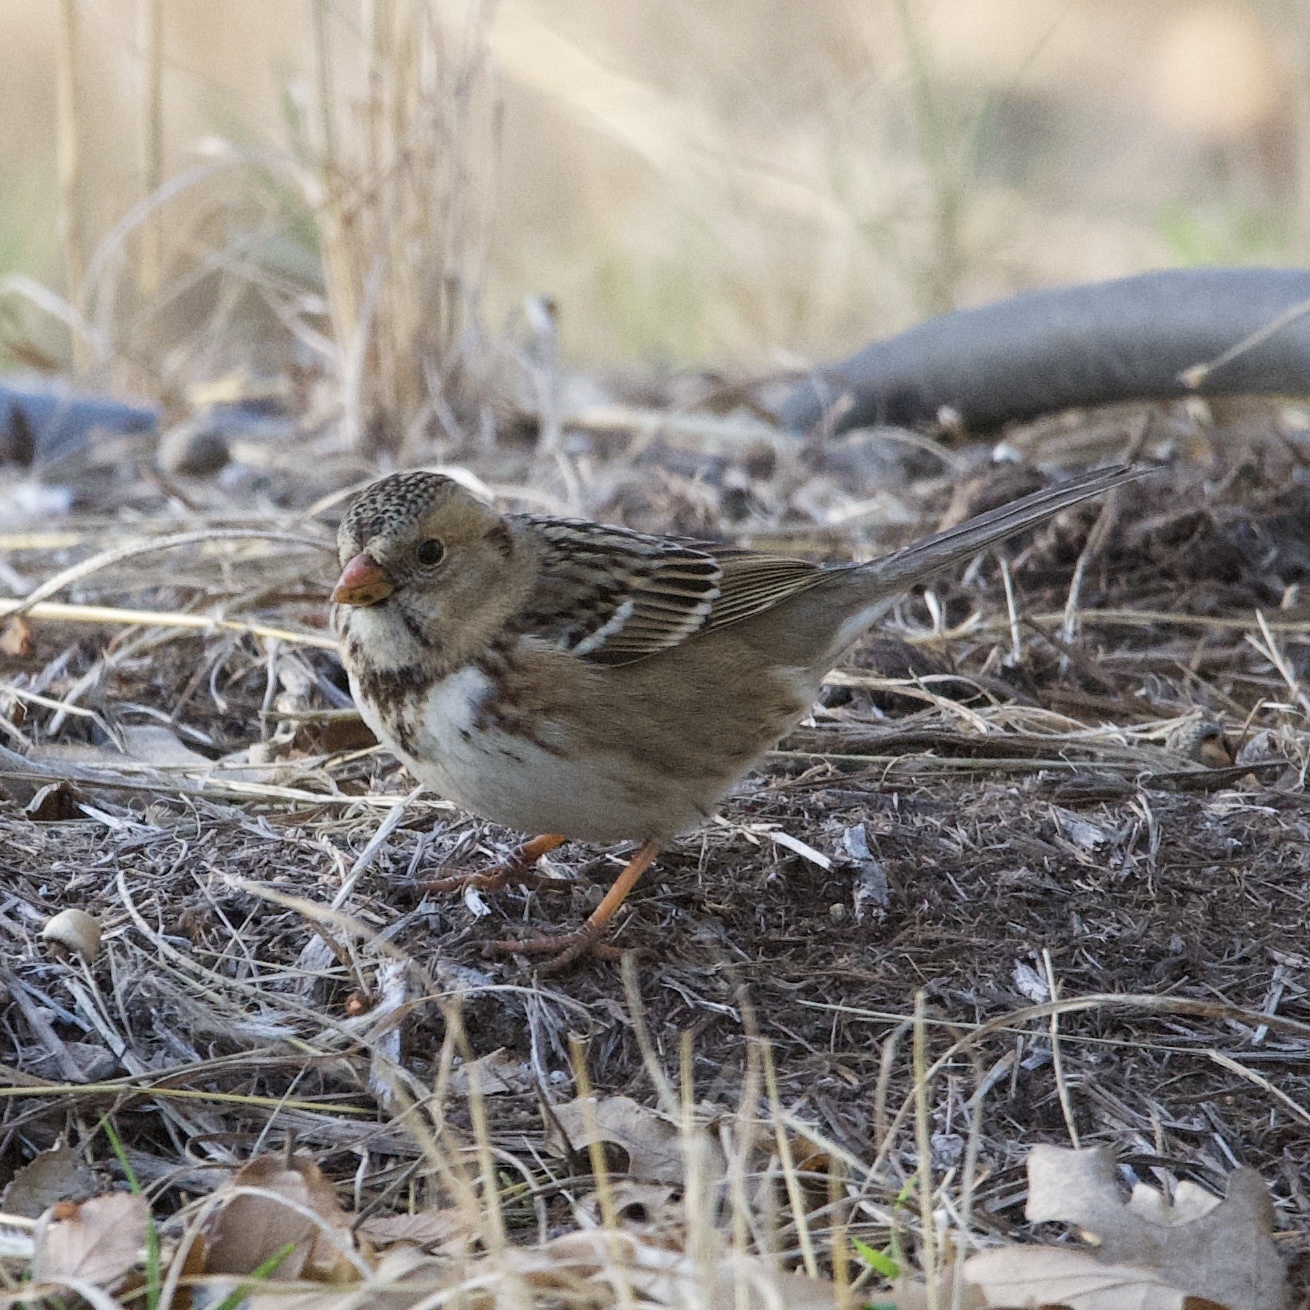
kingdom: Animalia
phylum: Chordata
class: Aves
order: Passeriformes
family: Passerellidae
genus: Zonotrichia
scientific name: Zonotrichia querula
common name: Harris's sparrow
